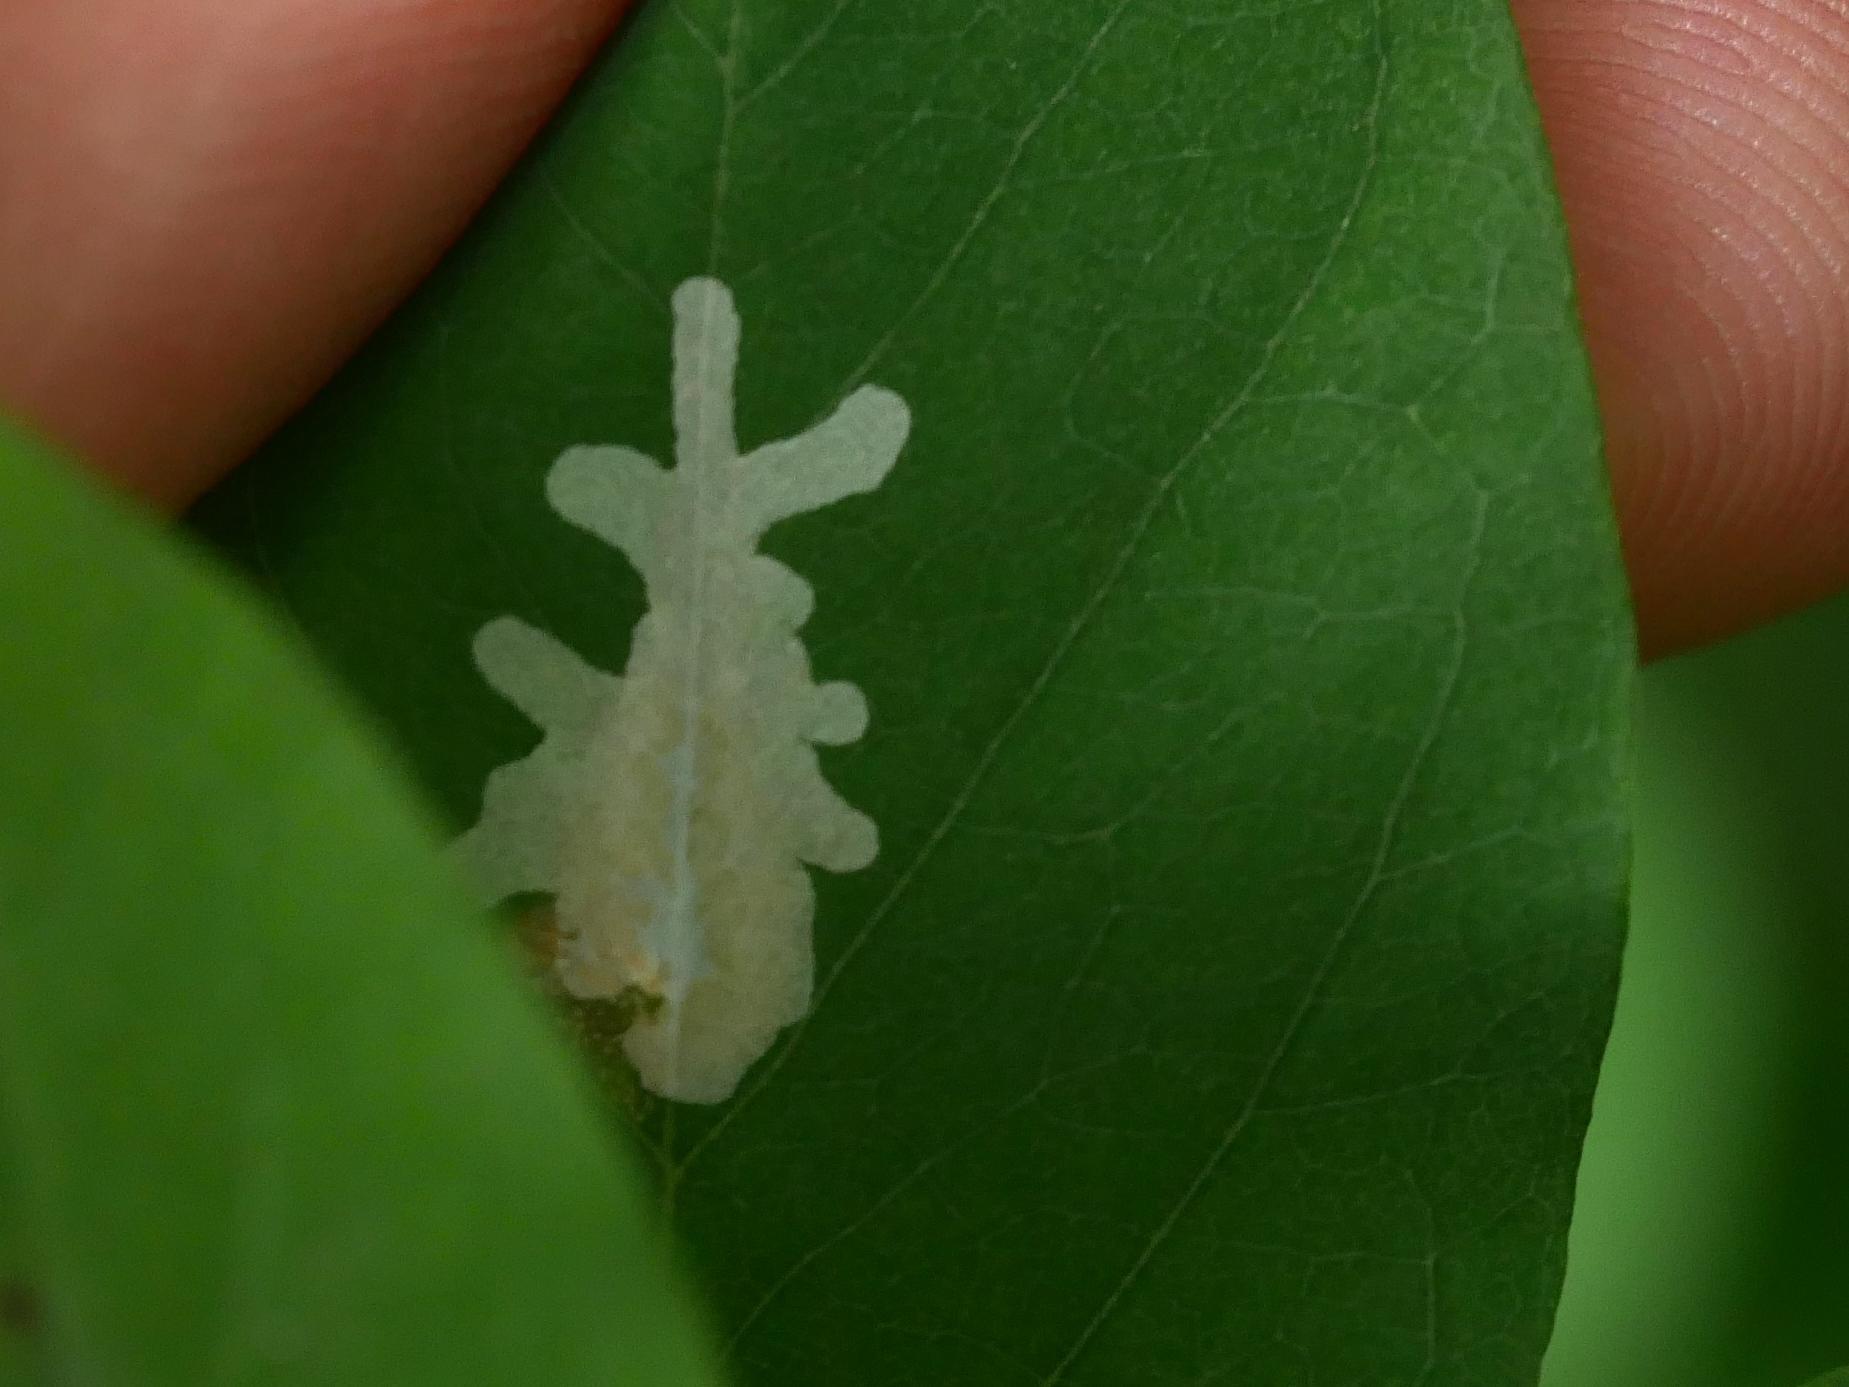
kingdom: Animalia
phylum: Arthropoda
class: Insecta
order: Lepidoptera
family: Gracillariidae
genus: Parectopa
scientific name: Parectopa robiniella
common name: Locust digitate leafminer
